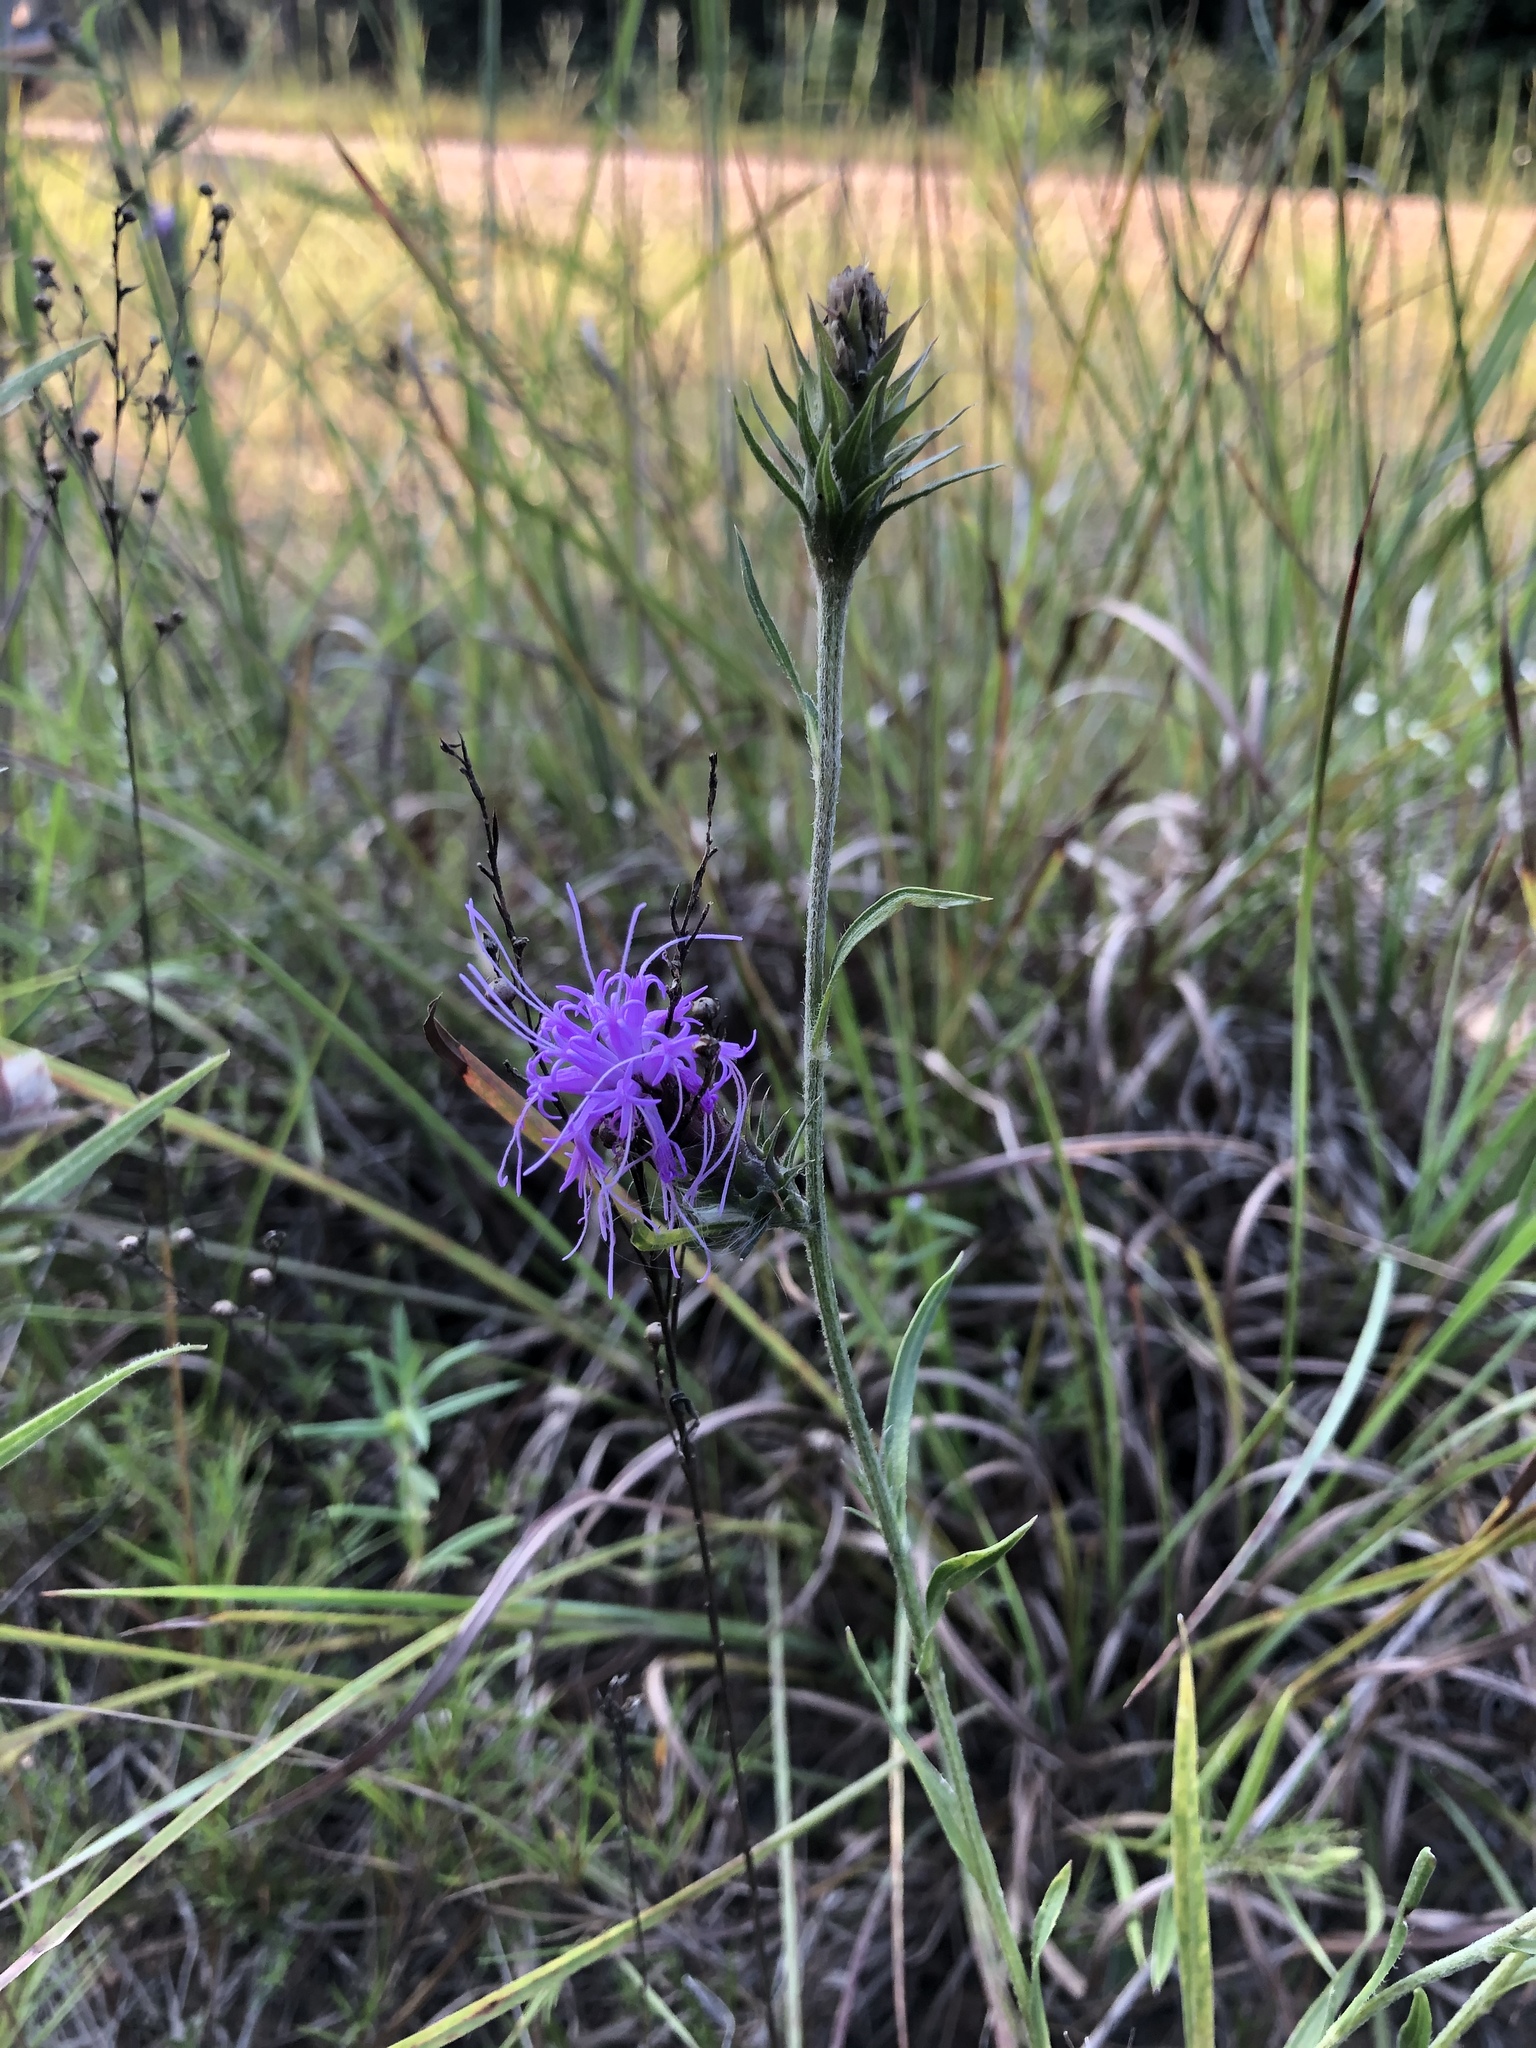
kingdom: Plantae
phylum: Tracheophyta
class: Magnoliopsida
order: Asterales
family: Asteraceae
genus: Liatris
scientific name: Liatris squarrosa
